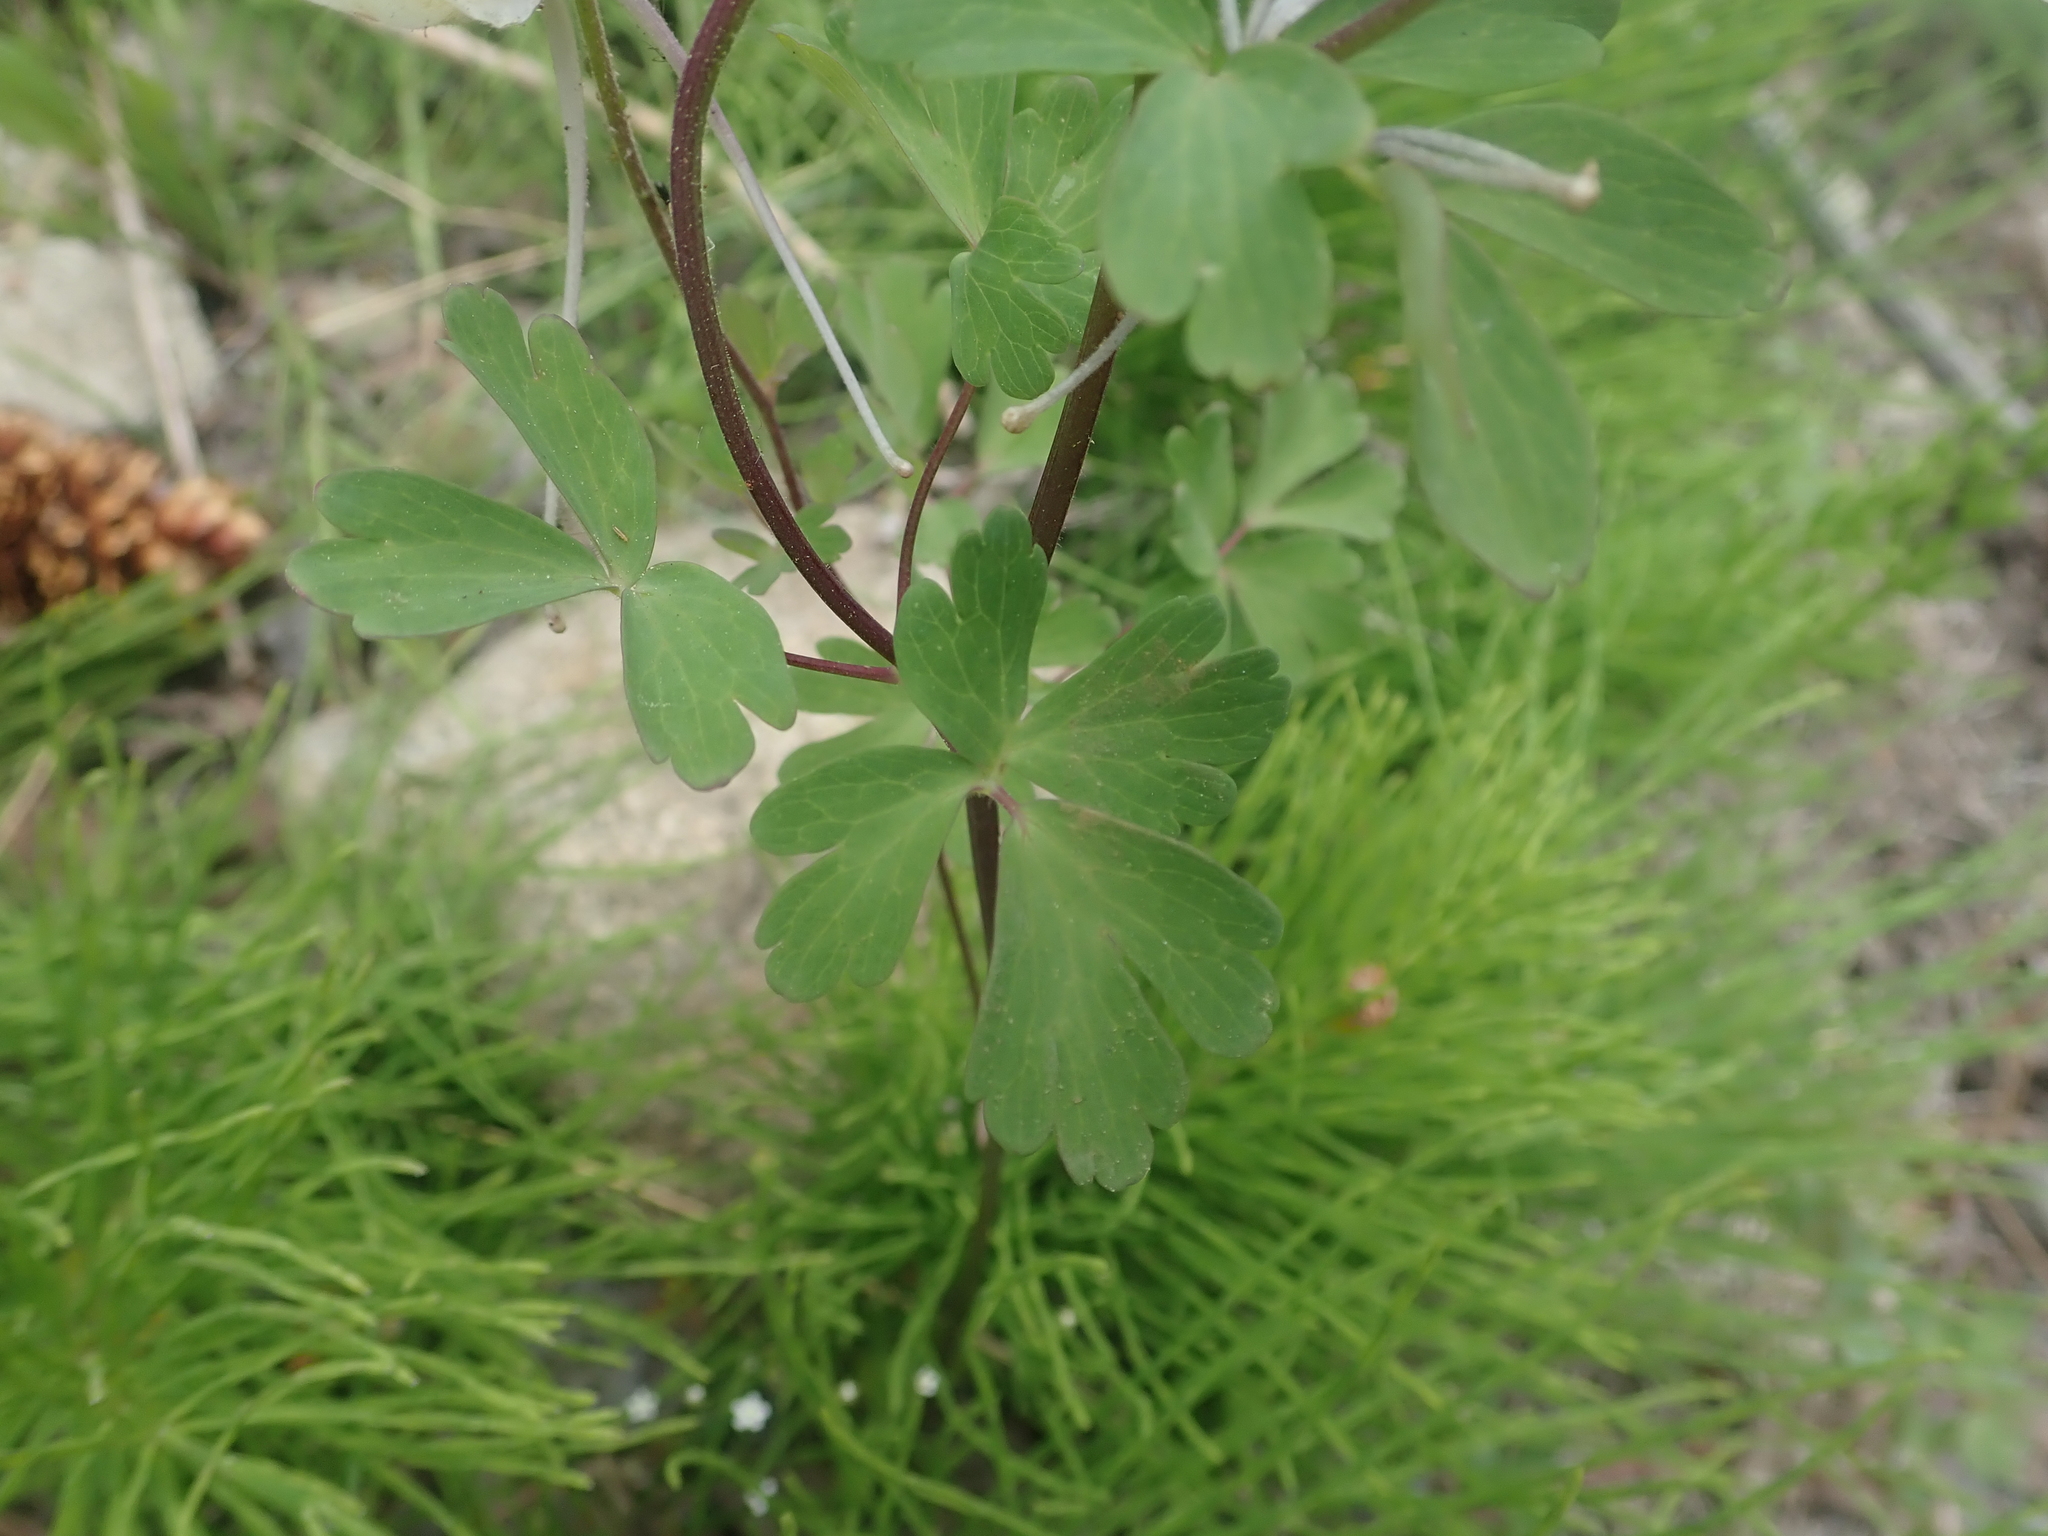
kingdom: Plantae
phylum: Tracheophyta
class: Magnoliopsida
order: Ranunculales
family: Ranunculaceae
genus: Aquilegia
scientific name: Aquilegia coerulea
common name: Rocky mountain columbine
